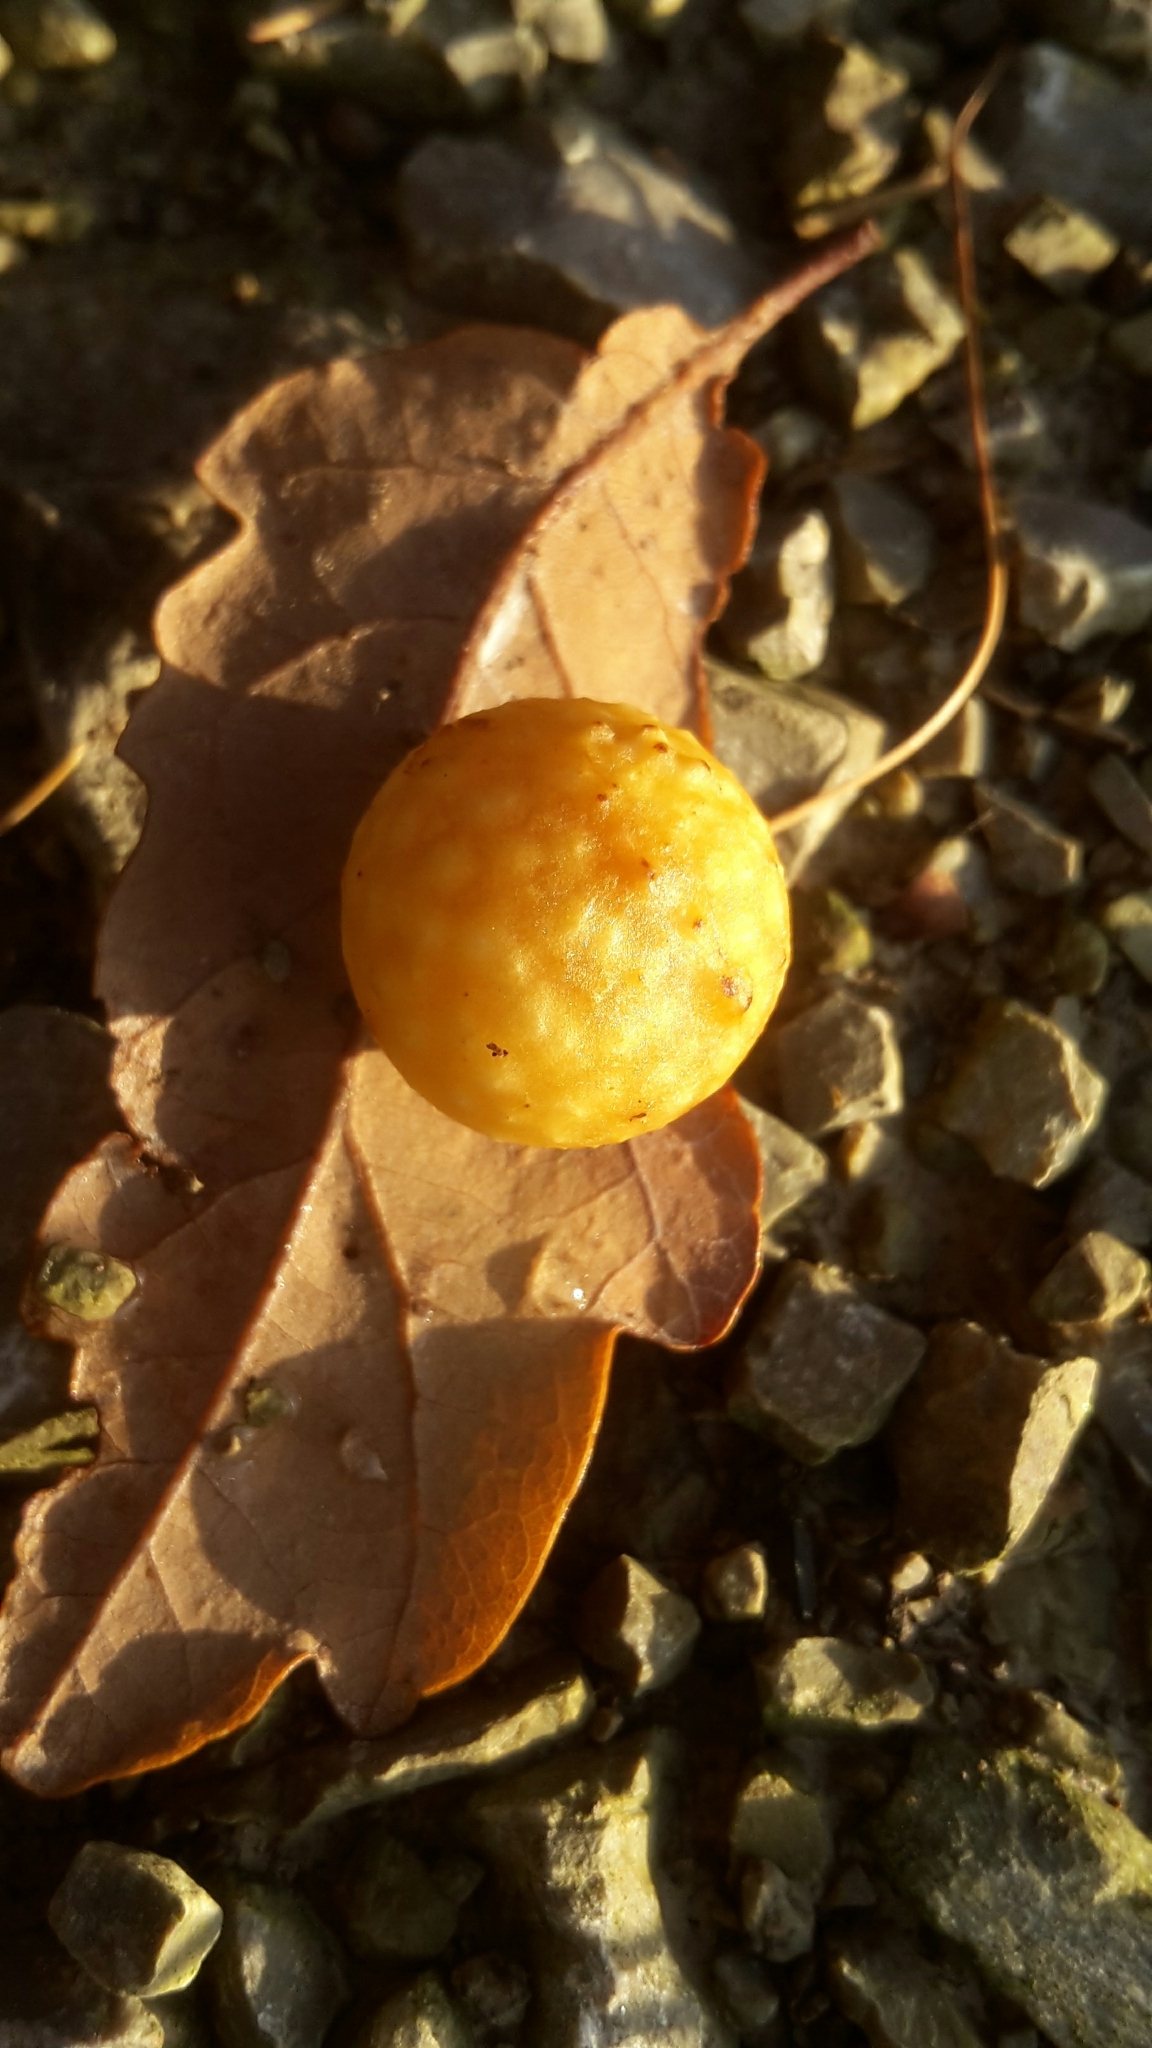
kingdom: Animalia
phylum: Arthropoda
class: Insecta
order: Hymenoptera
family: Cynipidae
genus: Cynips
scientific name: Cynips quercusfolii
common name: Cherry gall
